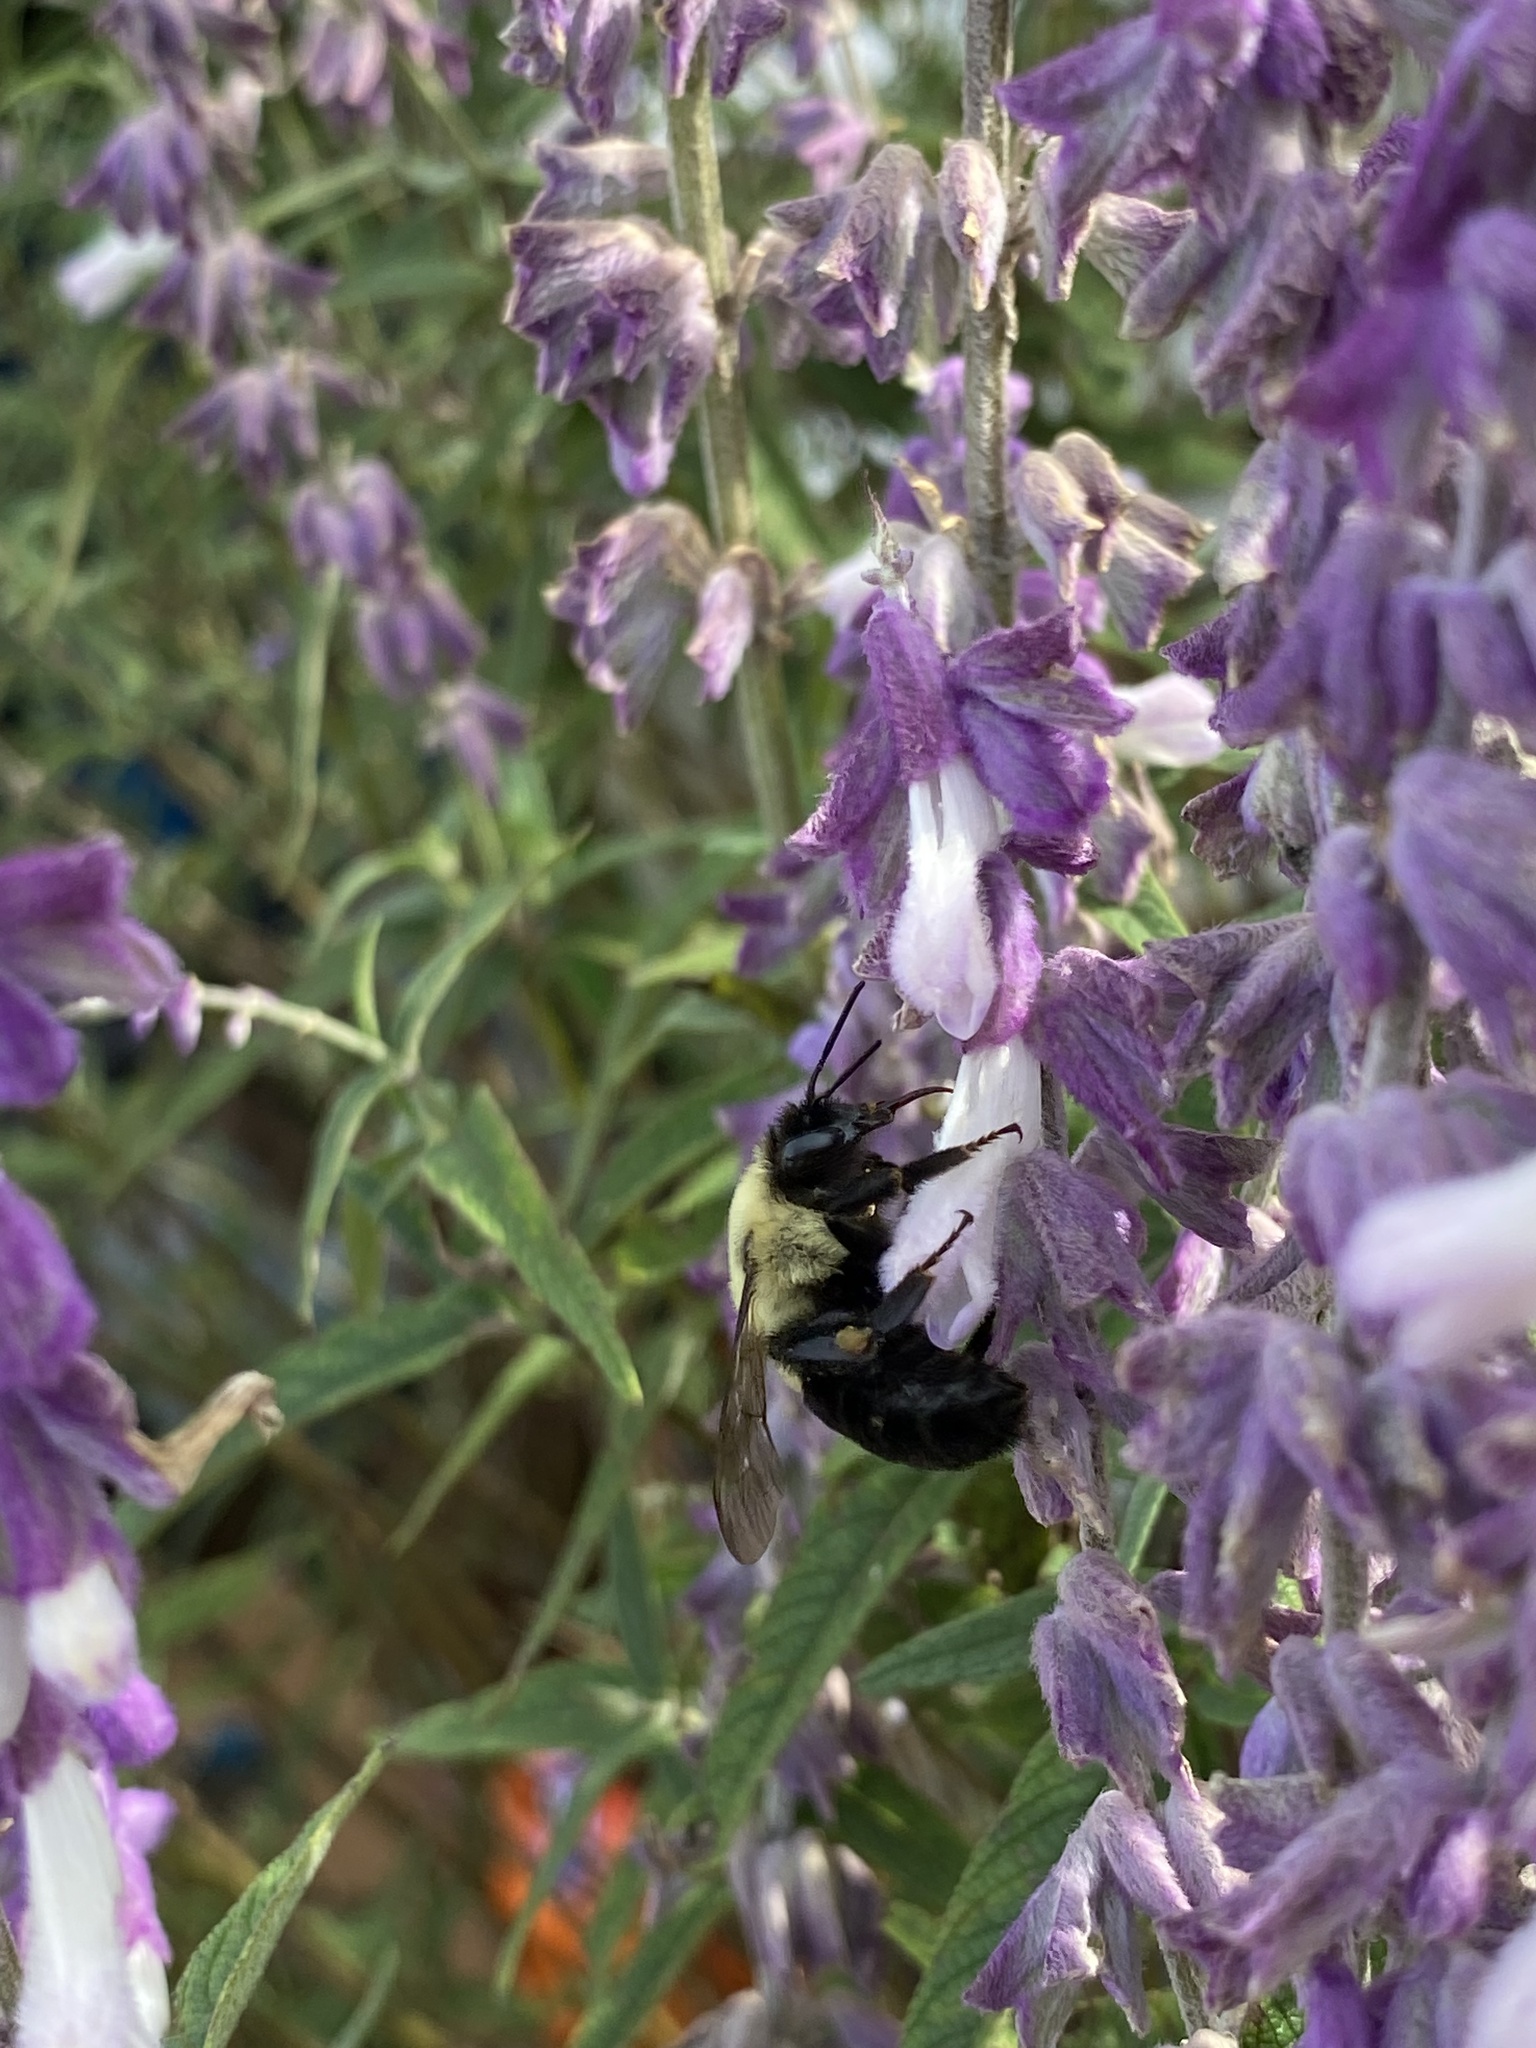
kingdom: Animalia
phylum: Arthropoda
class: Insecta
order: Hymenoptera
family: Apidae
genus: Bombus
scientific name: Bombus impatiens
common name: Common eastern bumble bee
